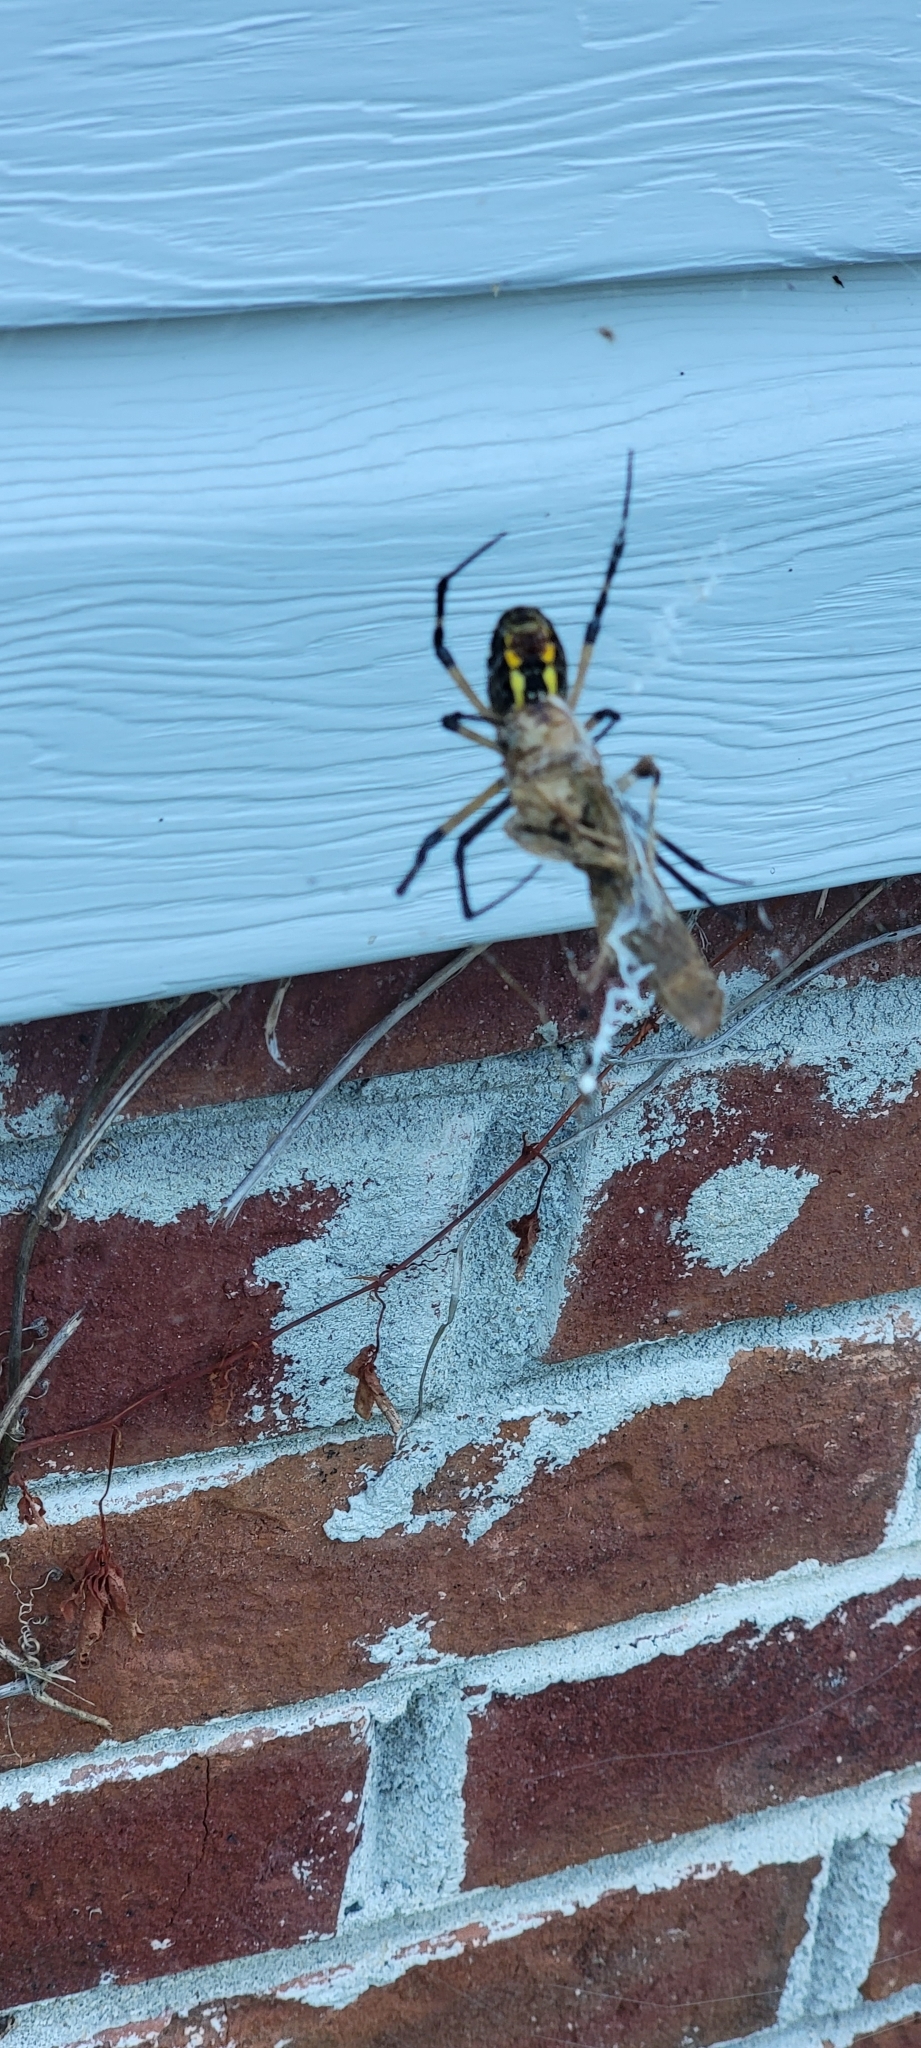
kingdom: Animalia
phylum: Arthropoda
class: Arachnida
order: Araneae
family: Araneidae
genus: Argiope
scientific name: Argiope aurantia
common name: Orb weavers
